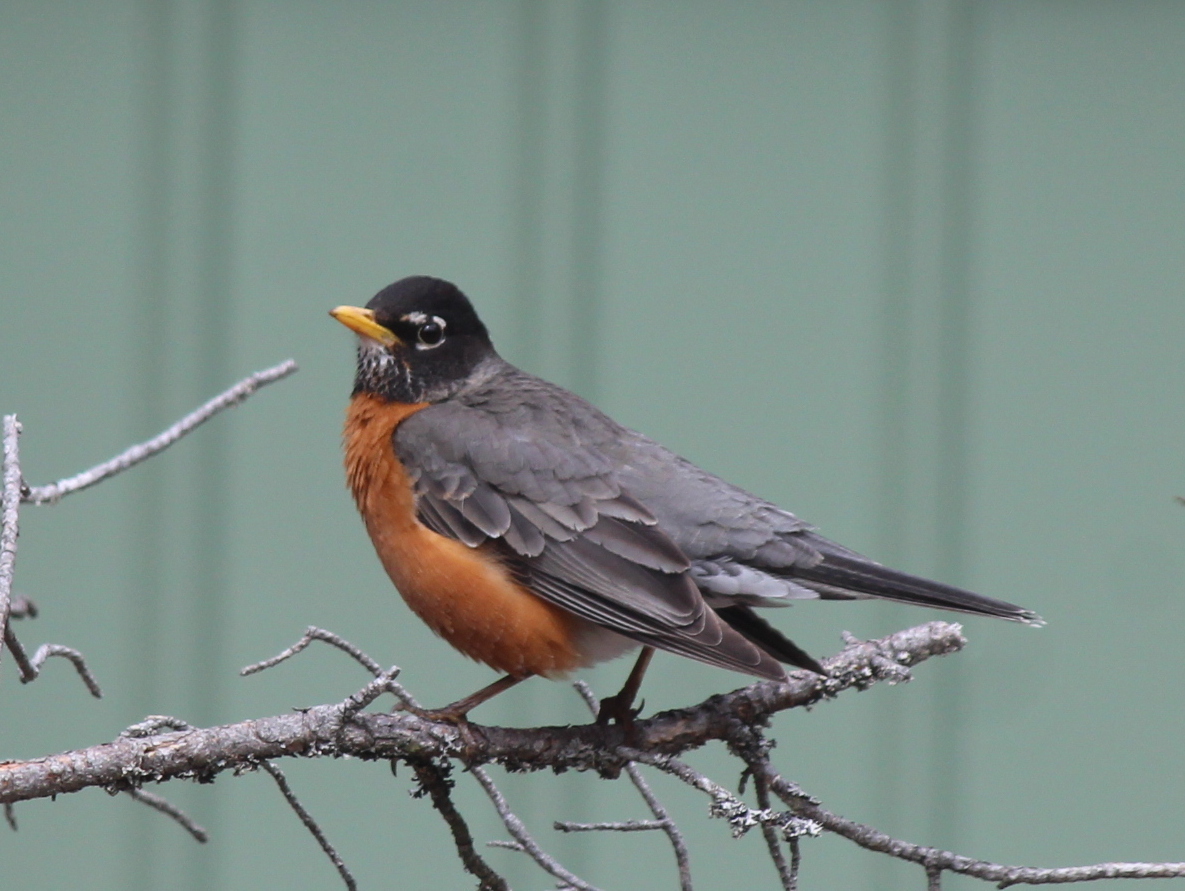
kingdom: Animalia
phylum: Chordata
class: Aves
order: Passeriformes
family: Turdidae
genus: Turdus
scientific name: Turdus migratorius
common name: American robin
